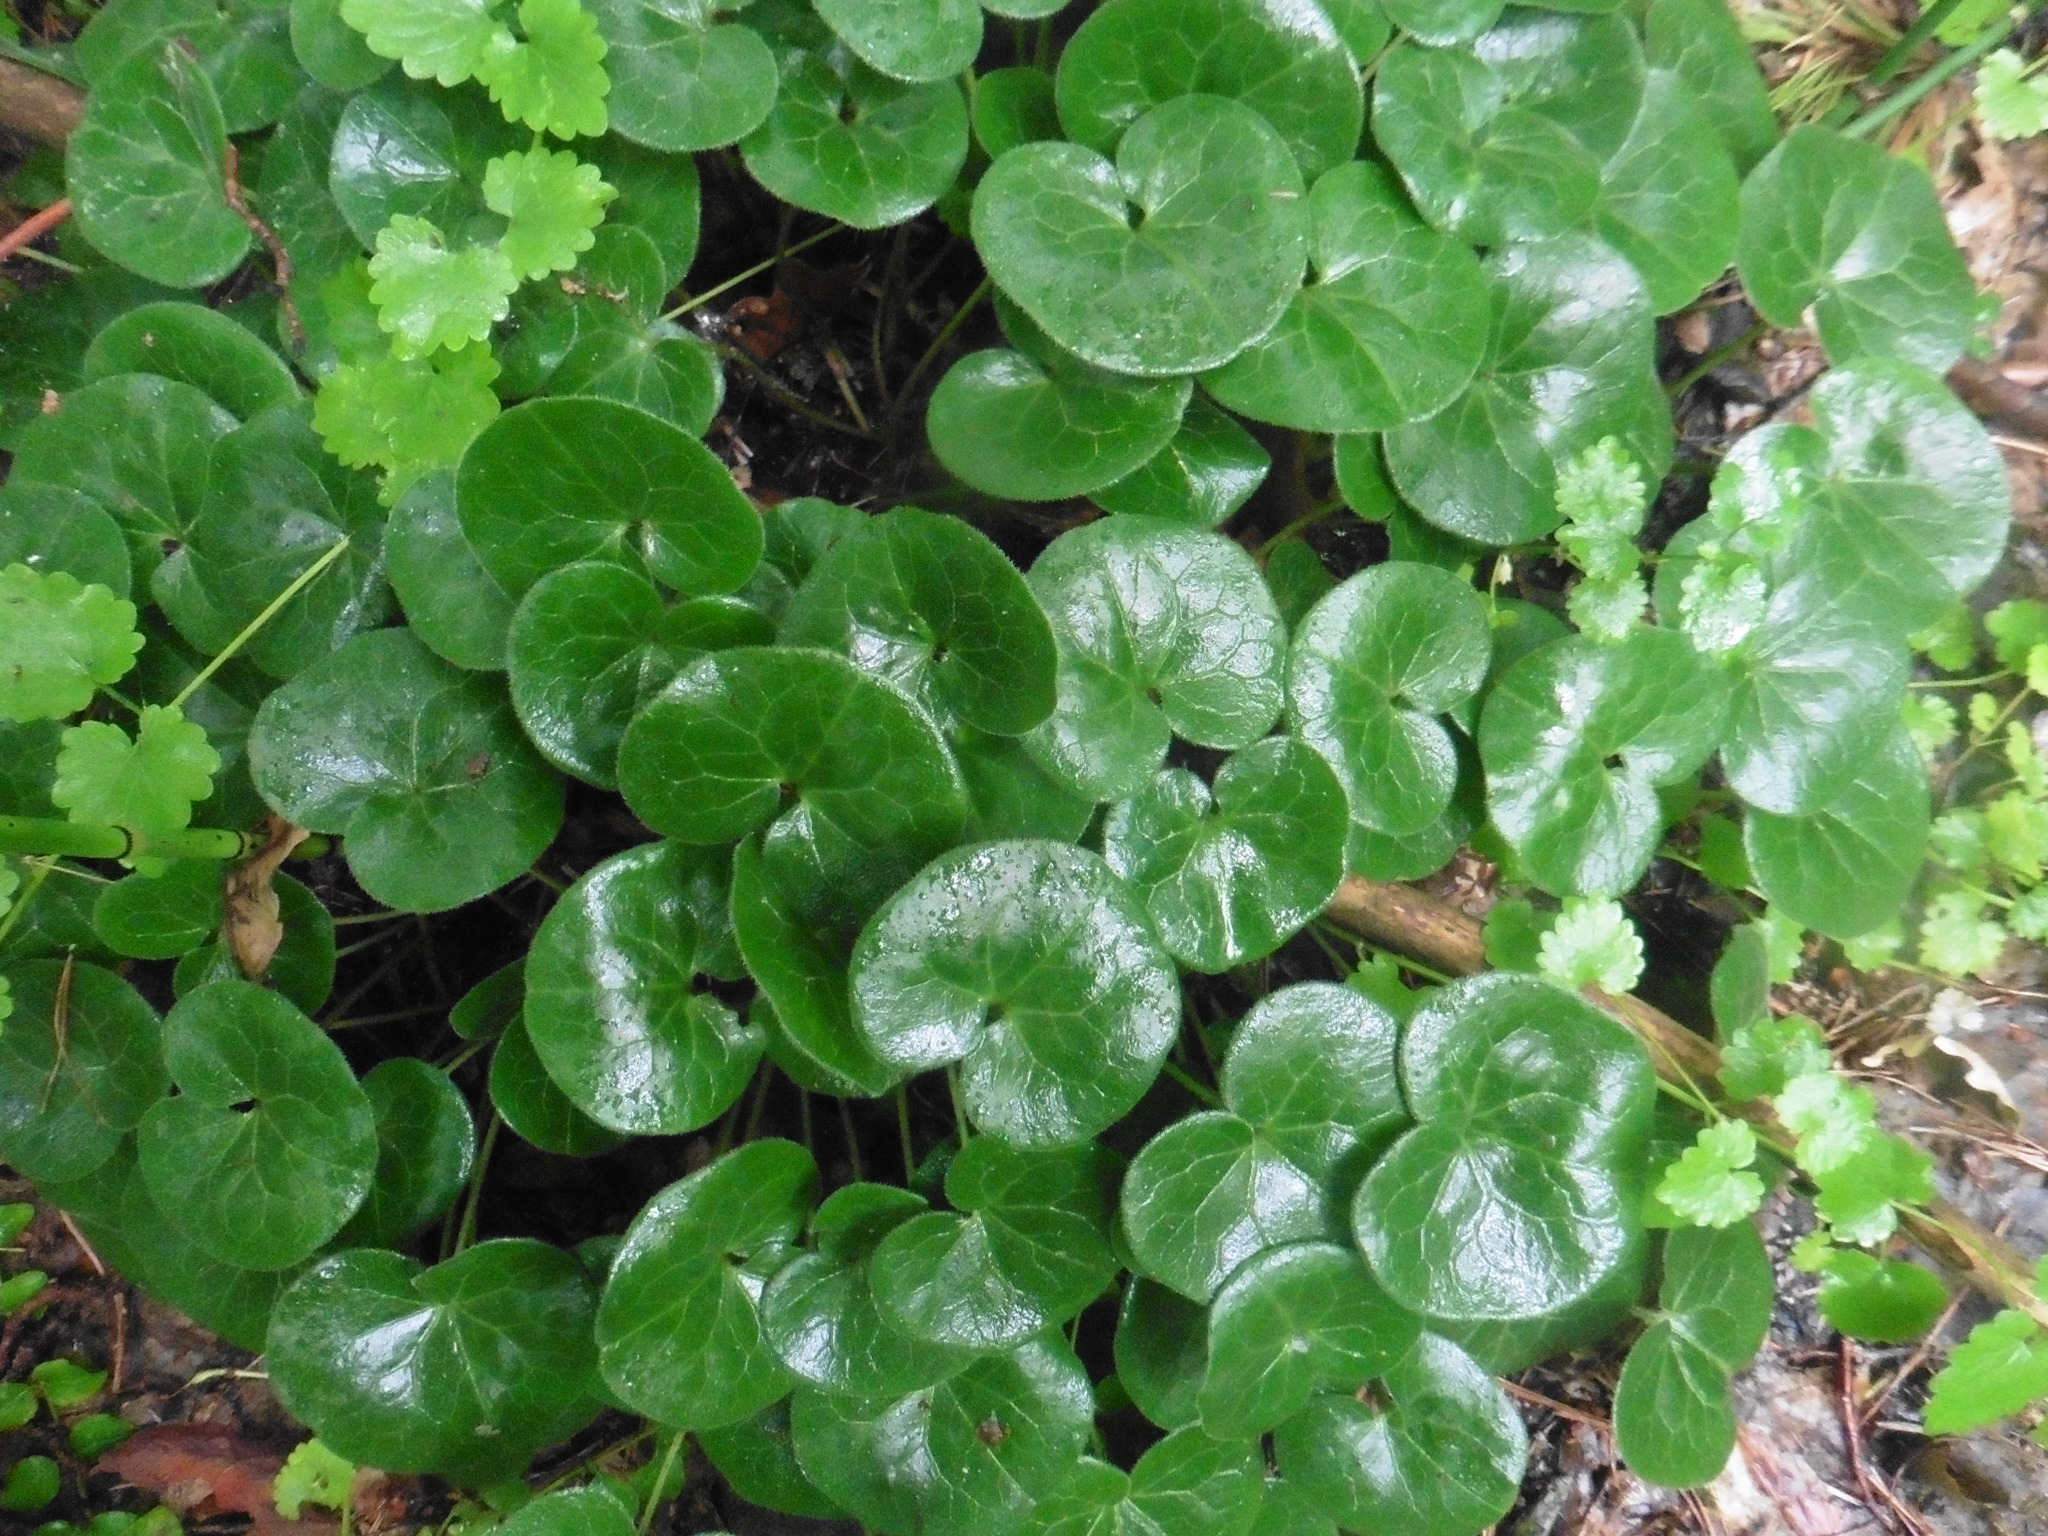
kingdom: Plantae
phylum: Tracheophyta
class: Magnoliopsida
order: Piperales
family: Aristolochiaceae
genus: Asarum
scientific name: Asarum europaeum
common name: Asarabacca
